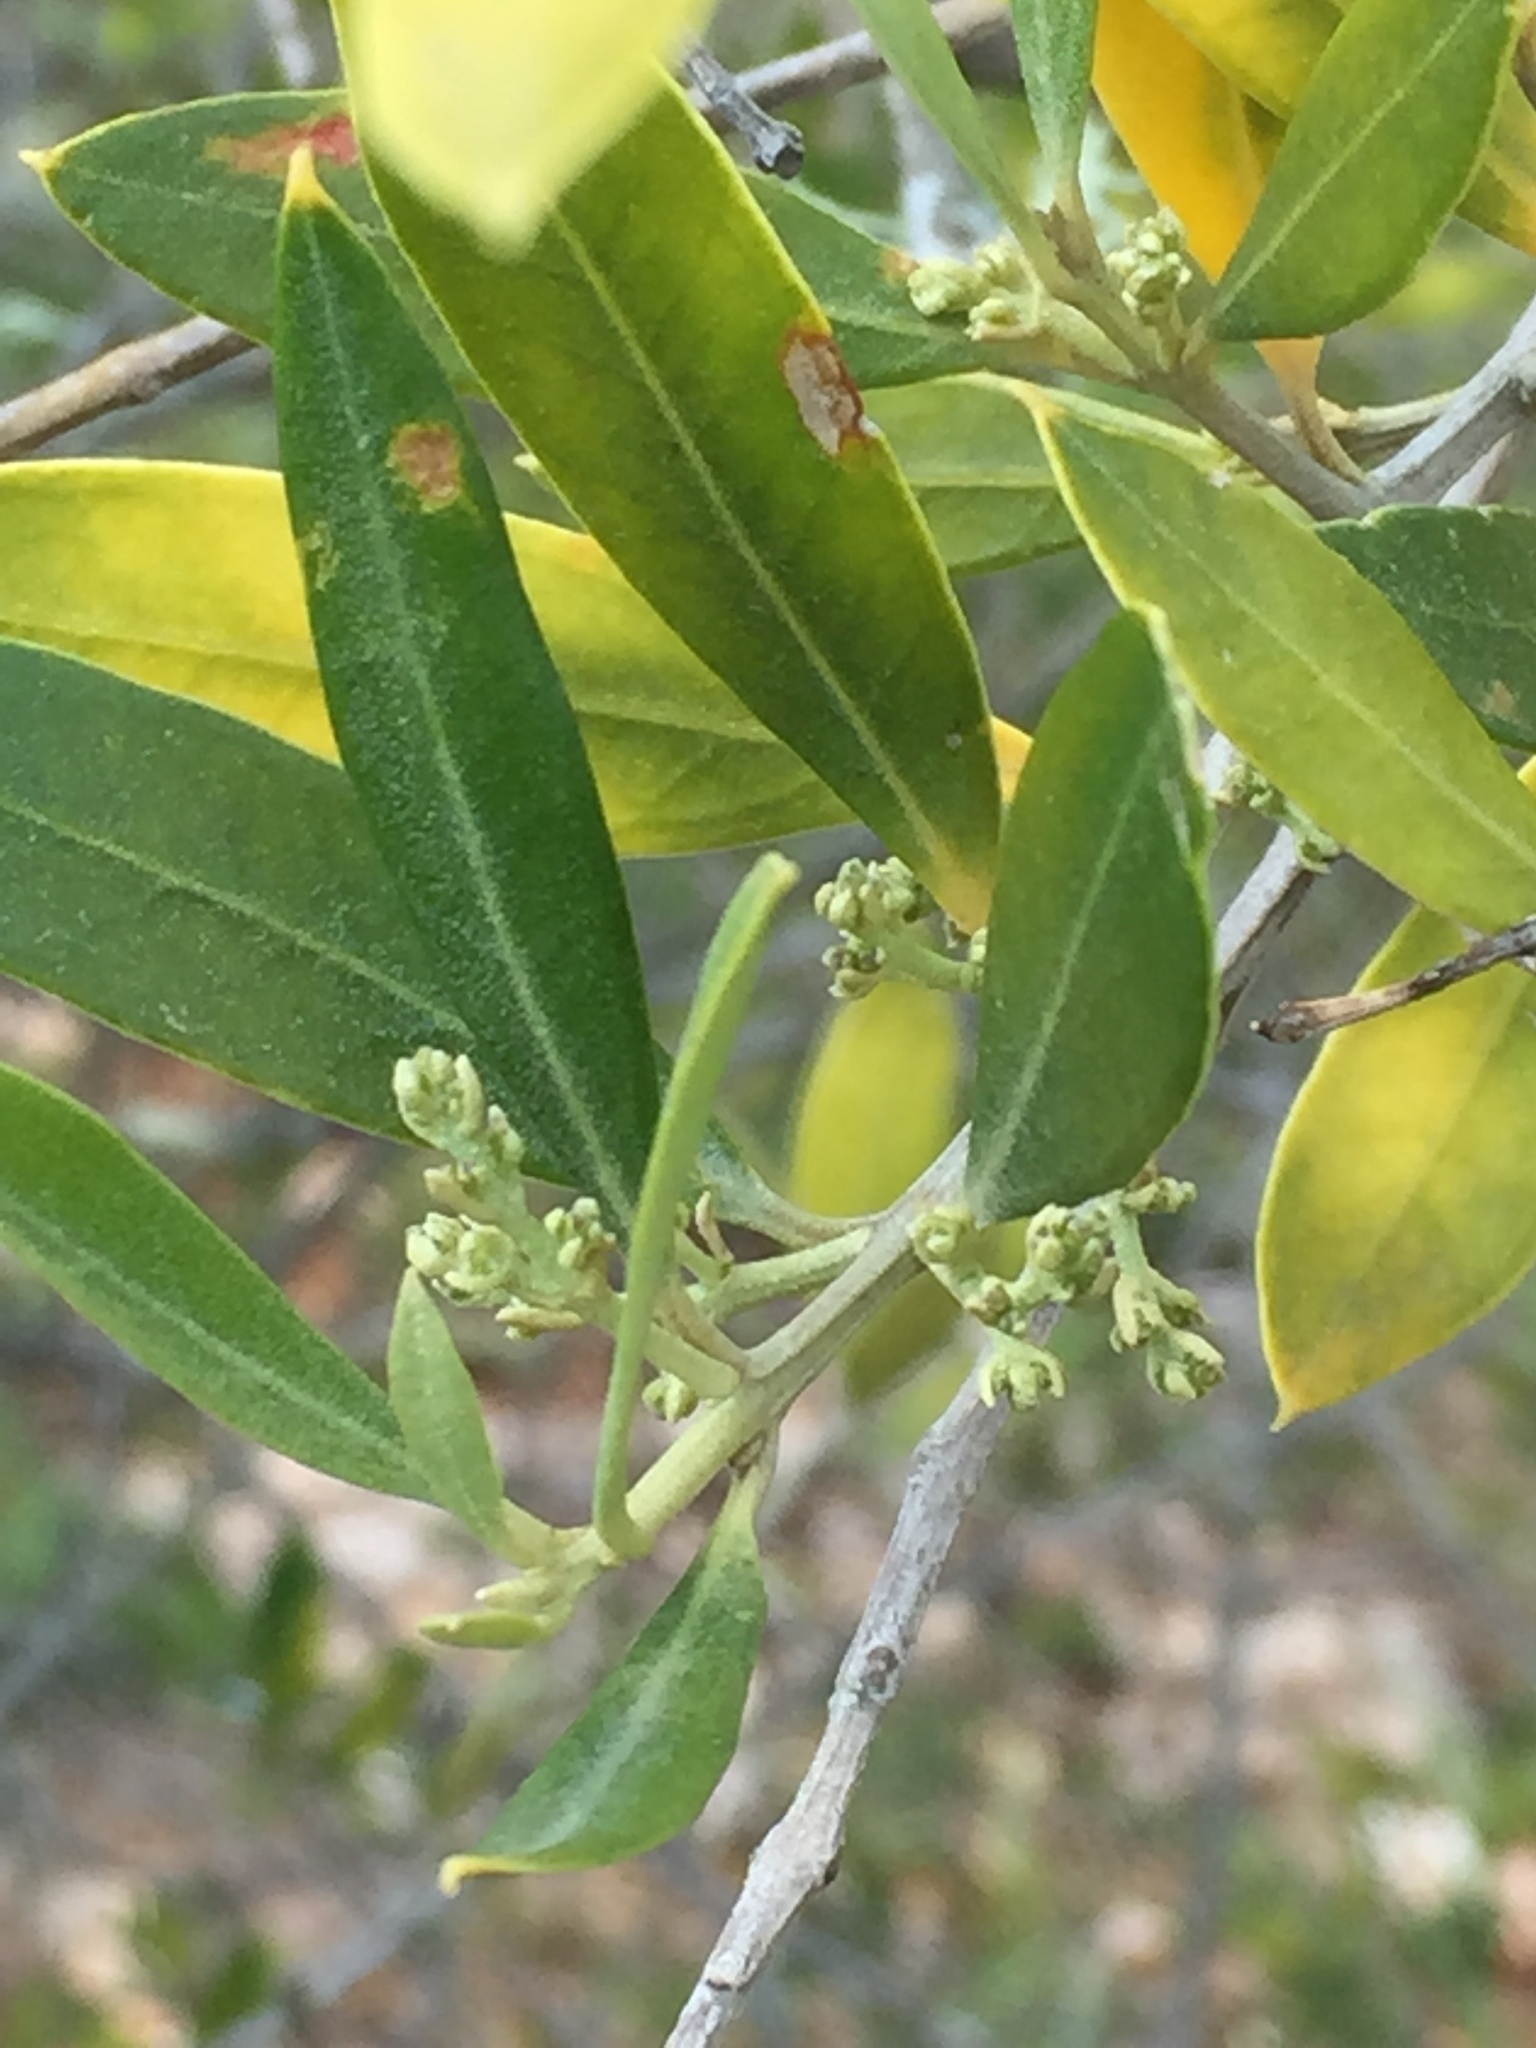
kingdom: Plantae
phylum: Tracheophyta
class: Magnoliopsida
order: Lamiales
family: Oleaceae
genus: Olea
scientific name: Olea europaea
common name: Olive
